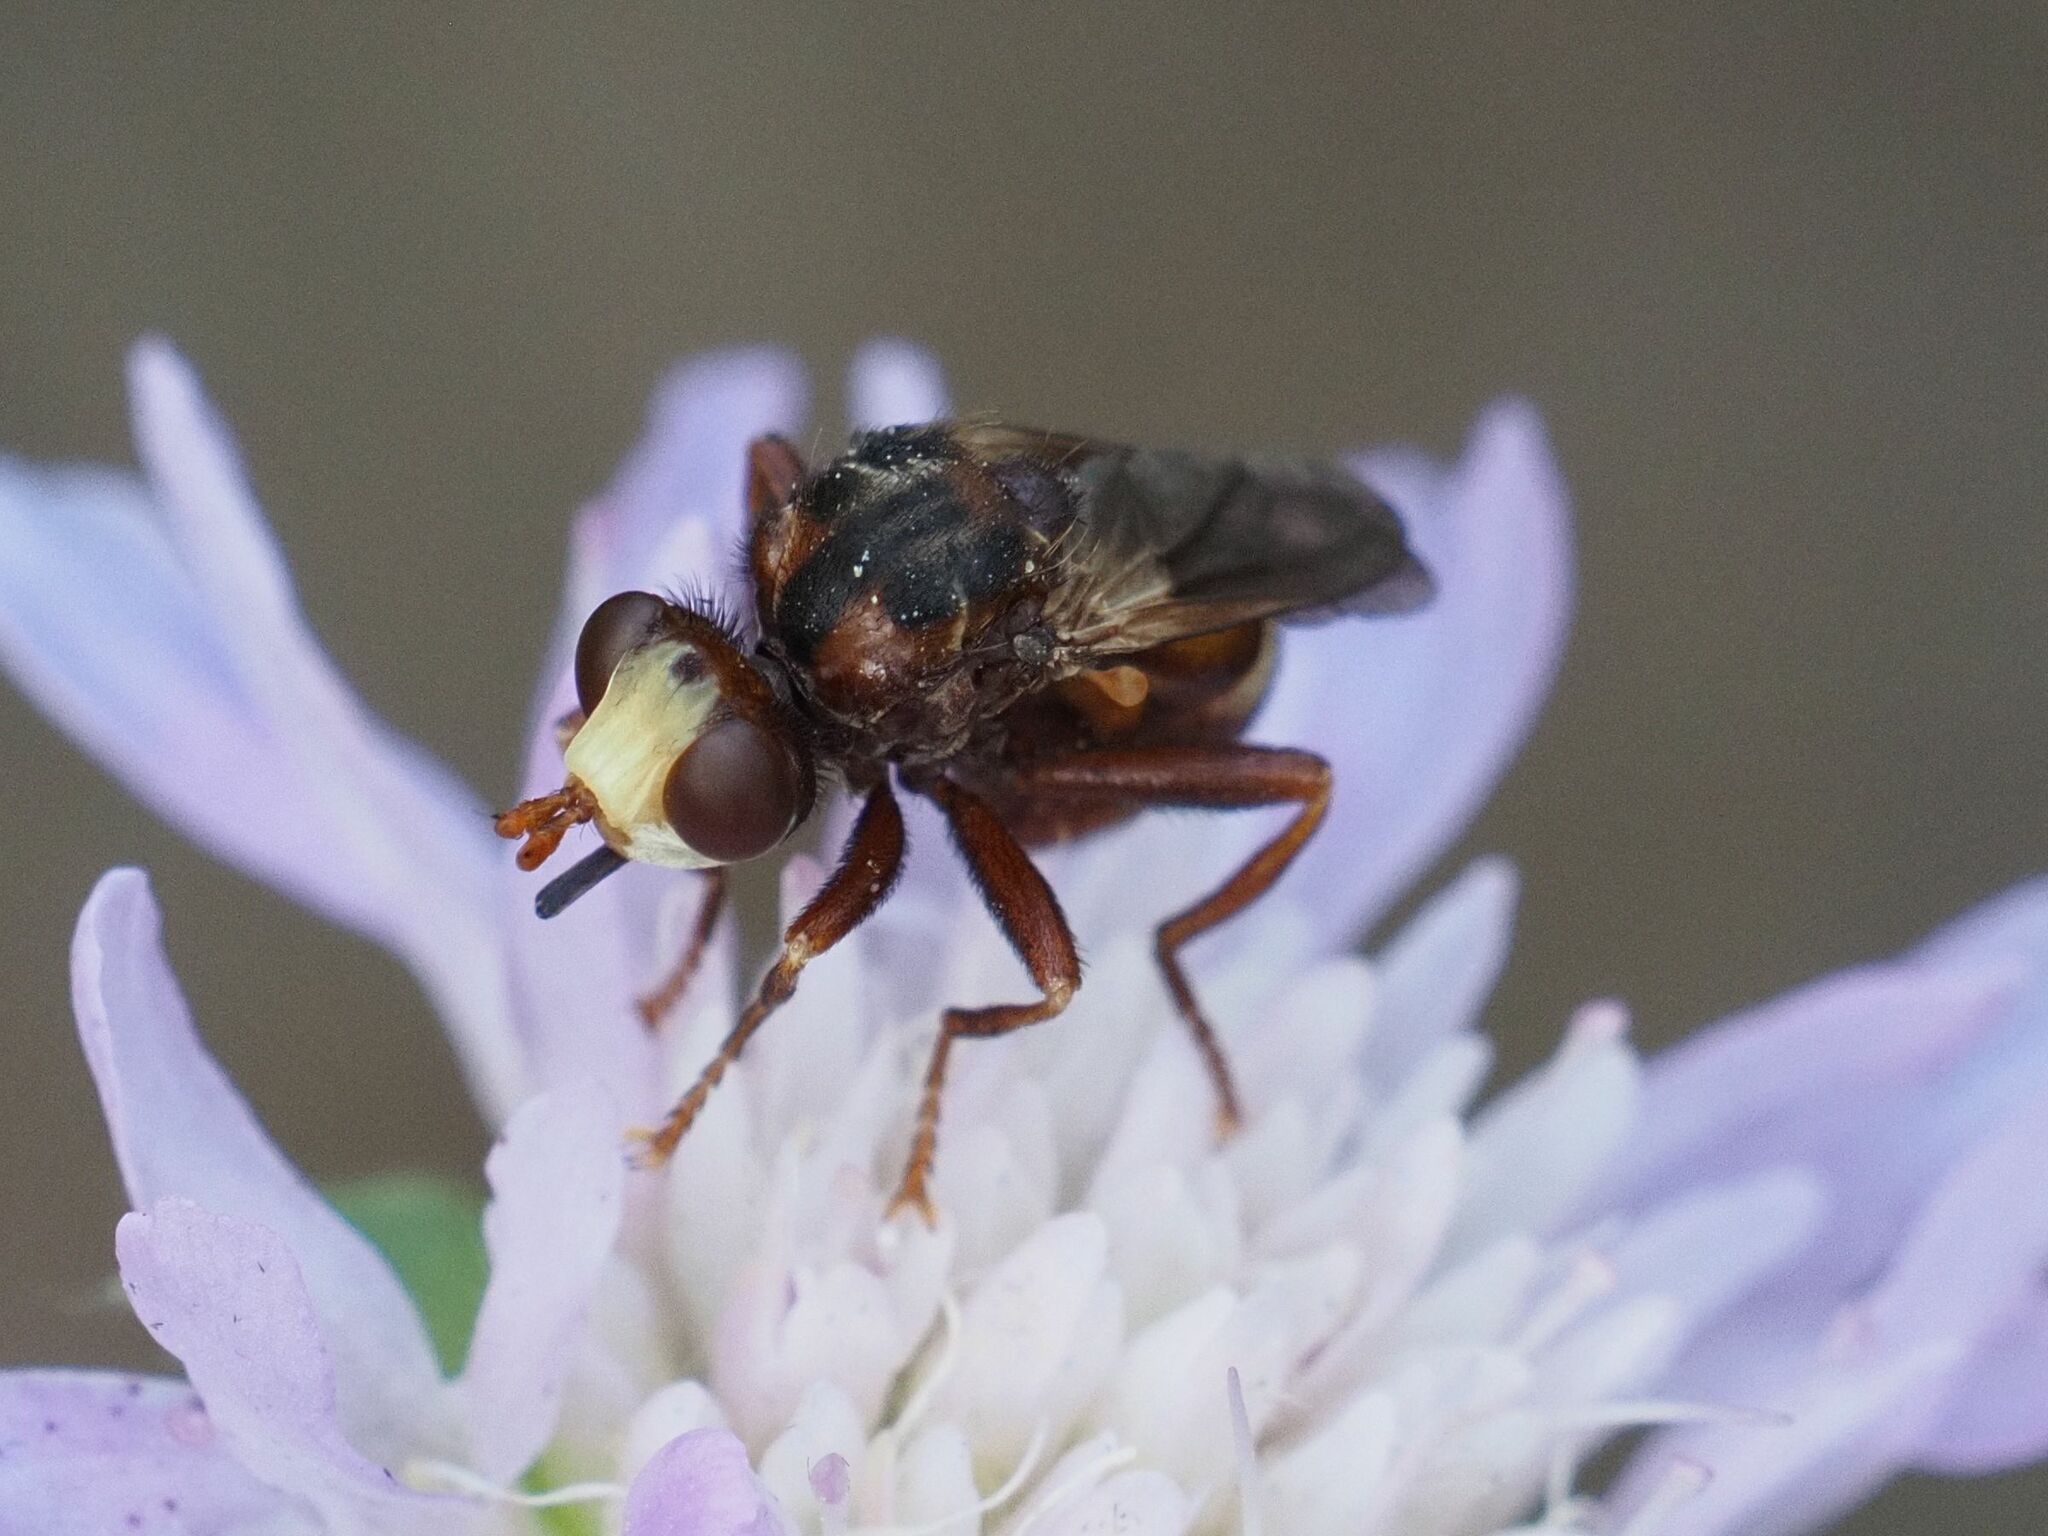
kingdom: Animalia
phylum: Arthropoda
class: Insecta
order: Diptera
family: Conopidae
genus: Sicus
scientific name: Sicus ferrugineus
